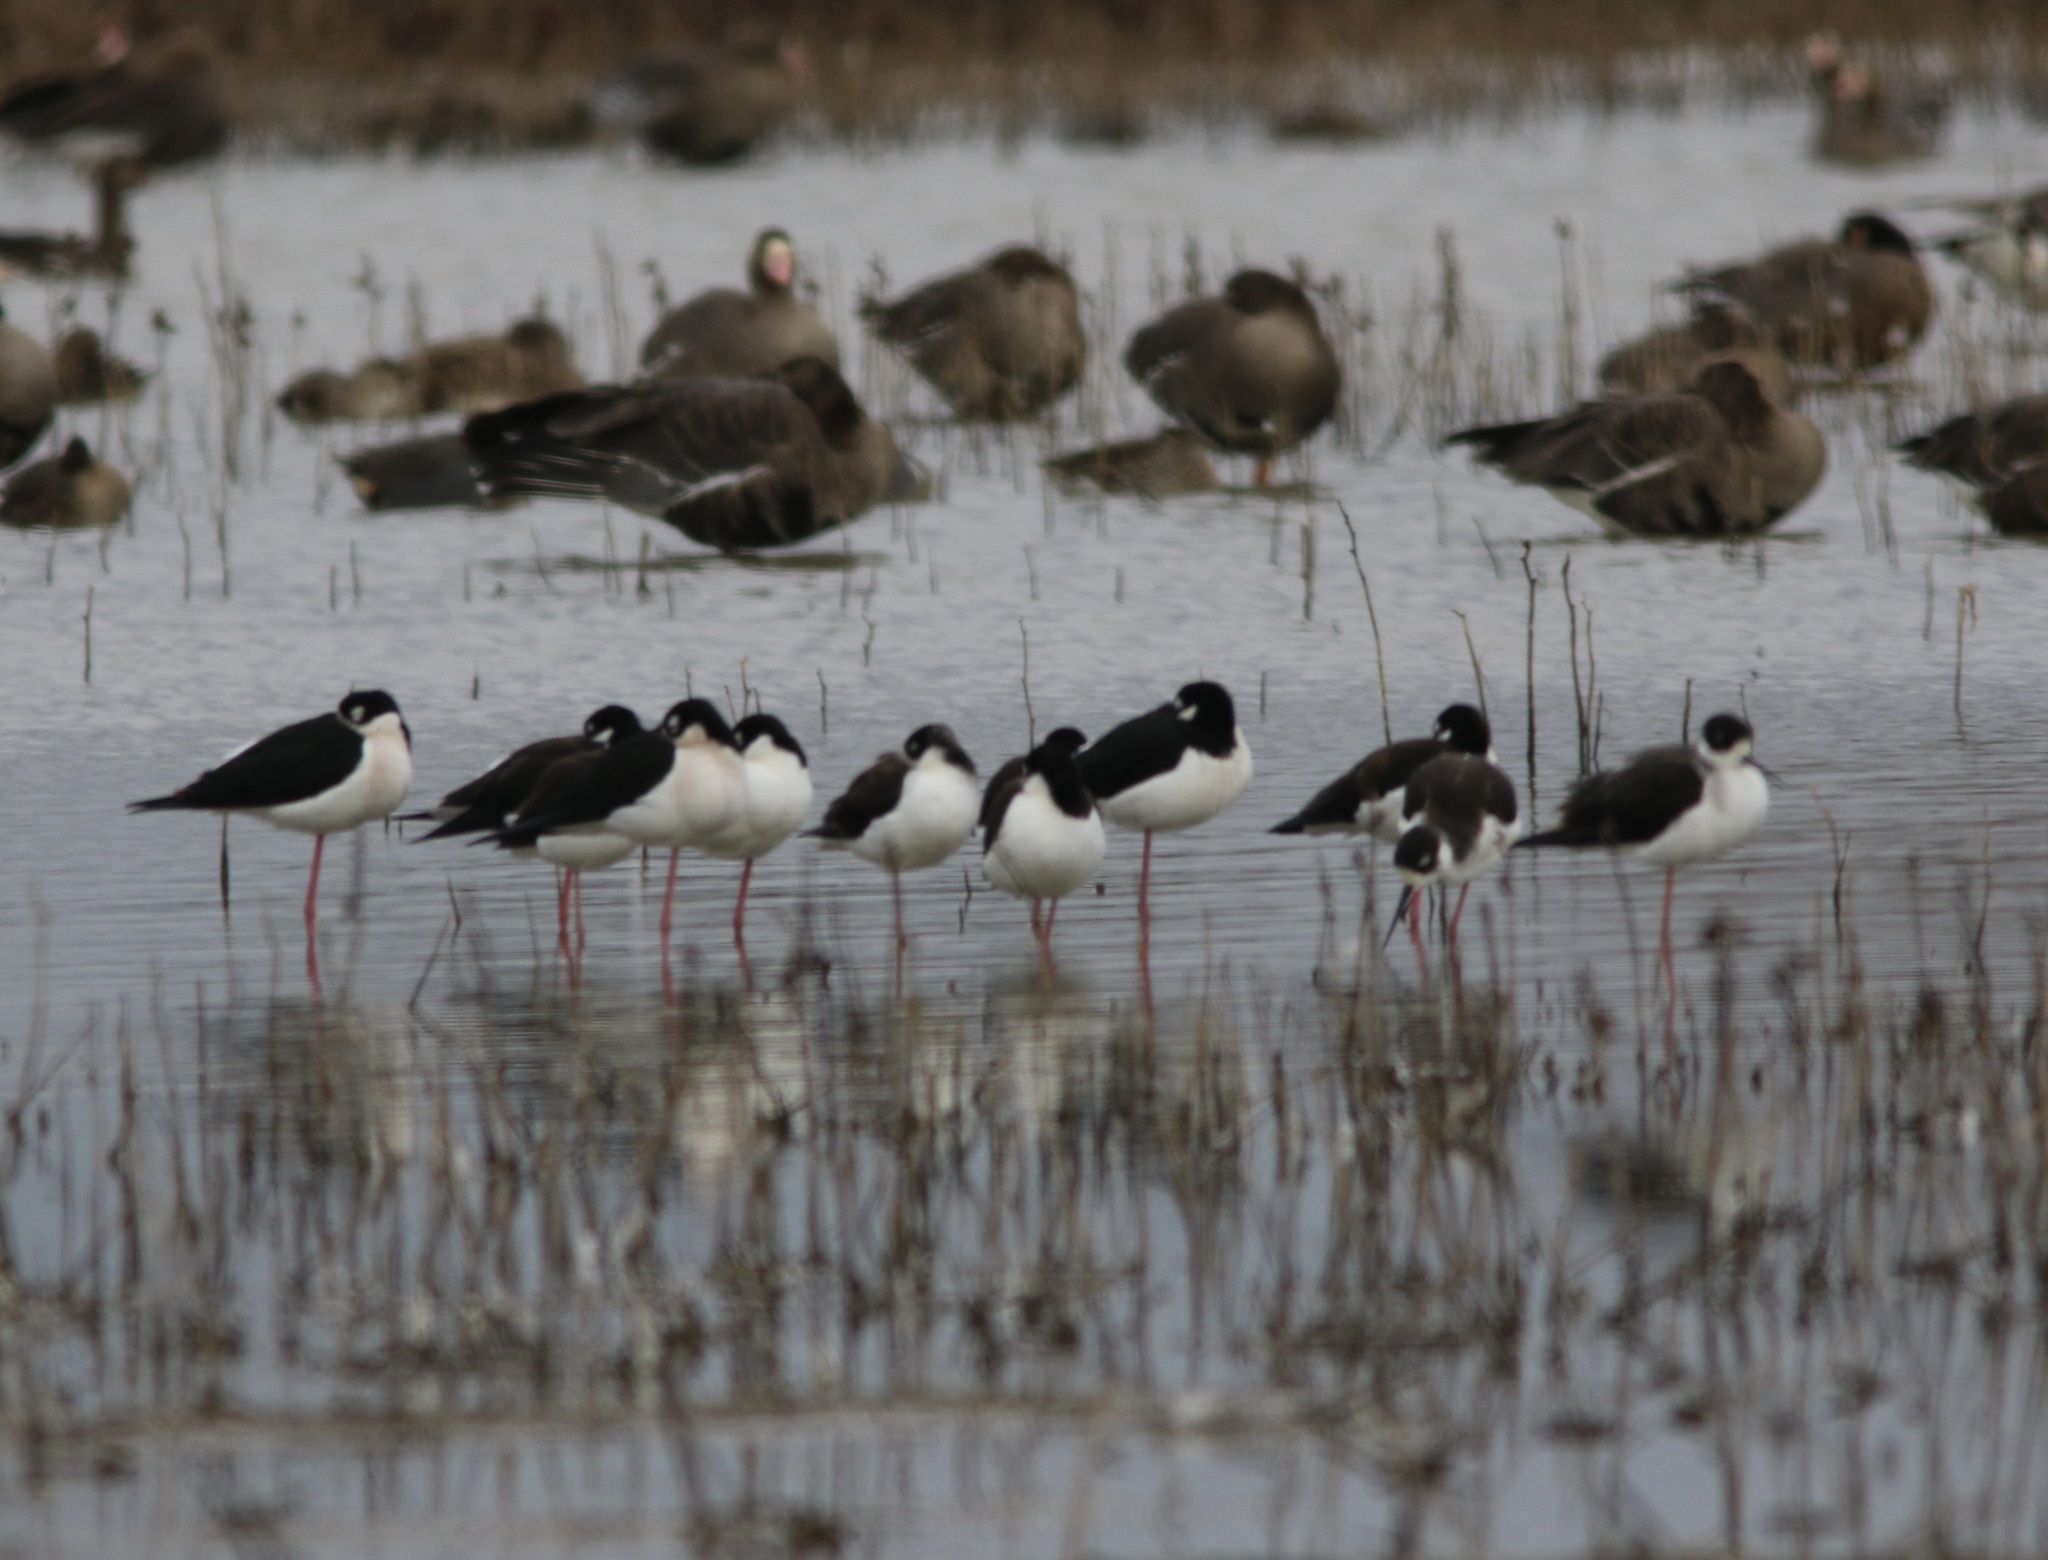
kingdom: Animalia
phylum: Chordata
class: Aves
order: Charadriiformes
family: Recurvirostridae
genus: Himantopus
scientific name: Himantopus mexicanus
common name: Black-necked stilt
